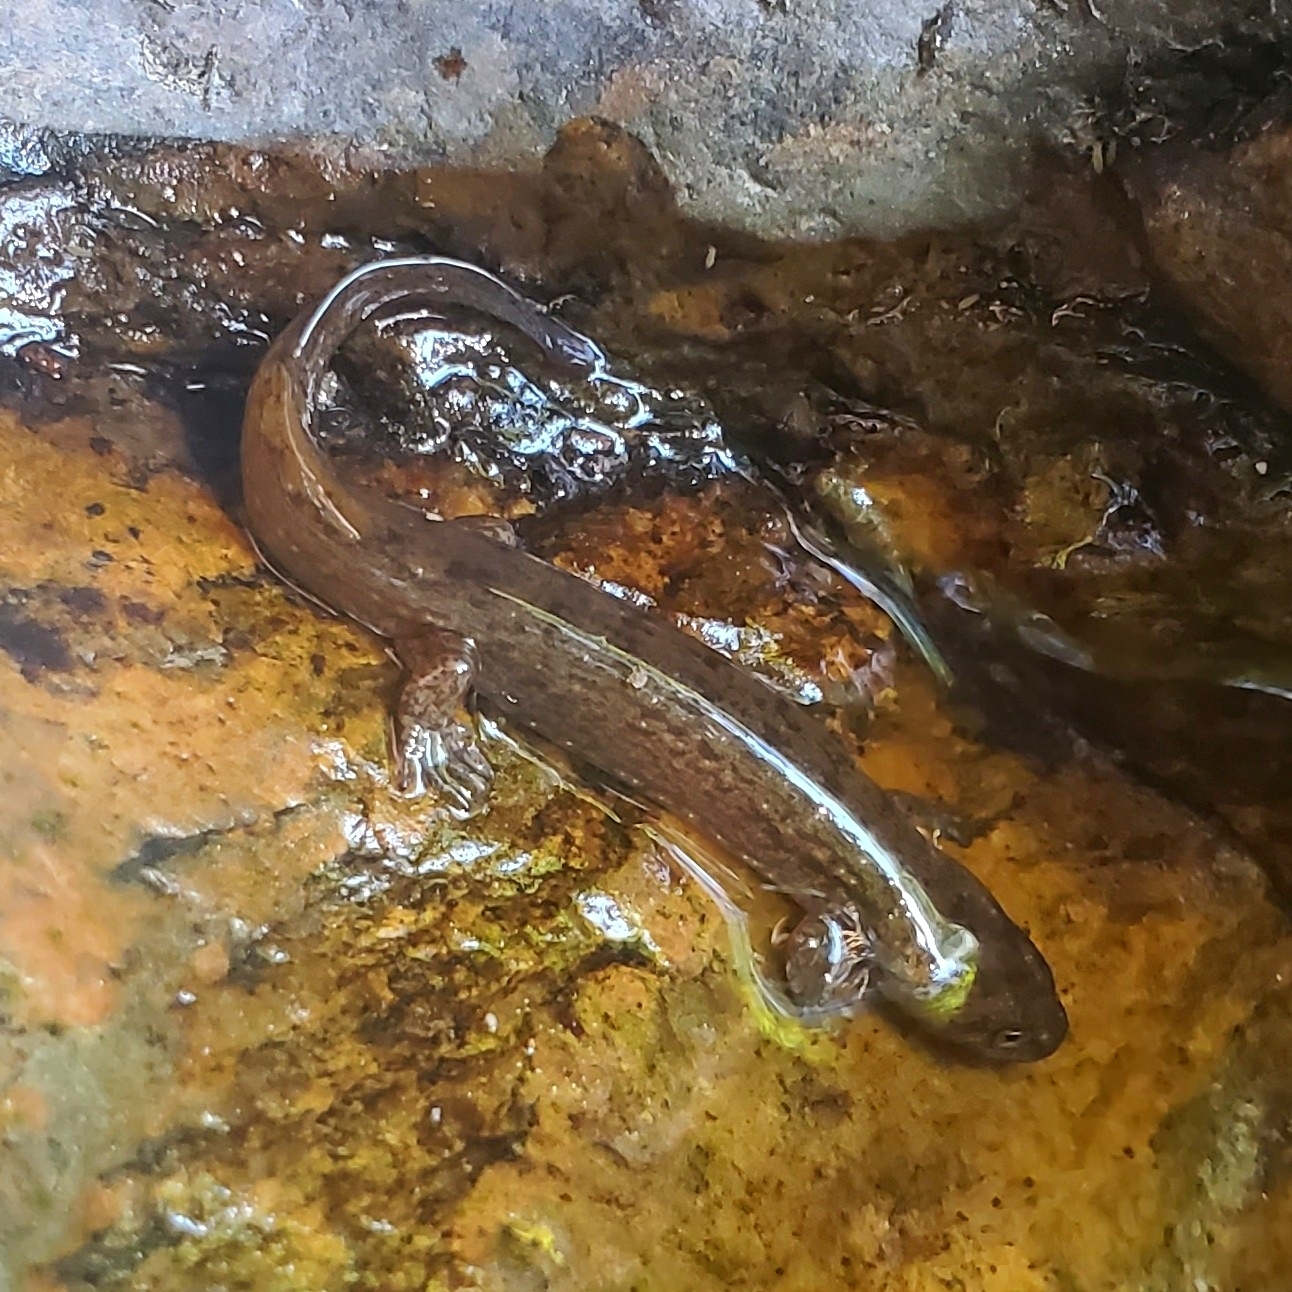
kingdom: Animalia
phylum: Chordata
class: Amphibia
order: Caudata
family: Plethodontidae
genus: Desmognathus
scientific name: Desmognathus
